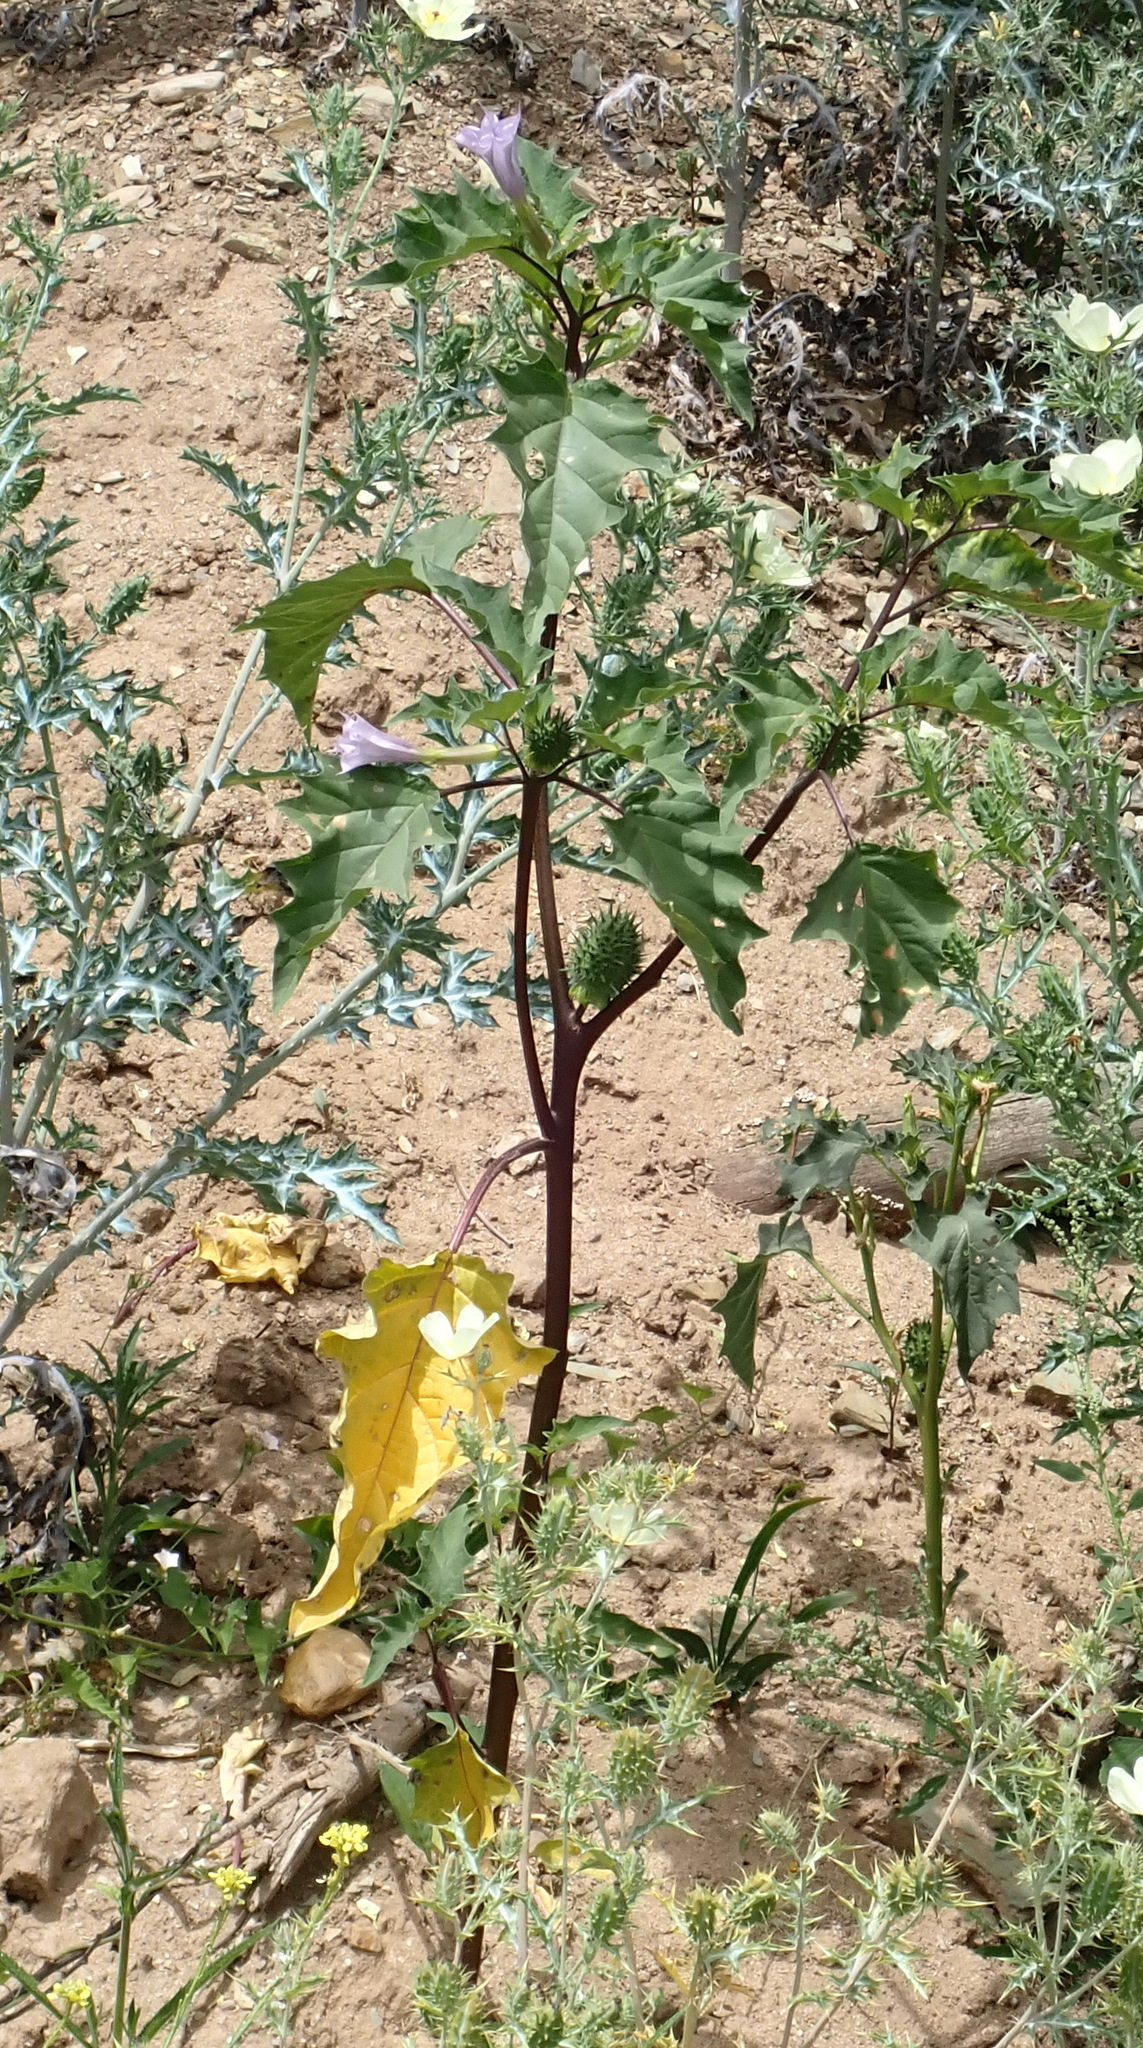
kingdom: Plantae
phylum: Tracheophyta
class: Magnoliopsida
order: Solanales
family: Solanaceae
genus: Datura
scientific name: Datura stramonium
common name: Thorn-apple
